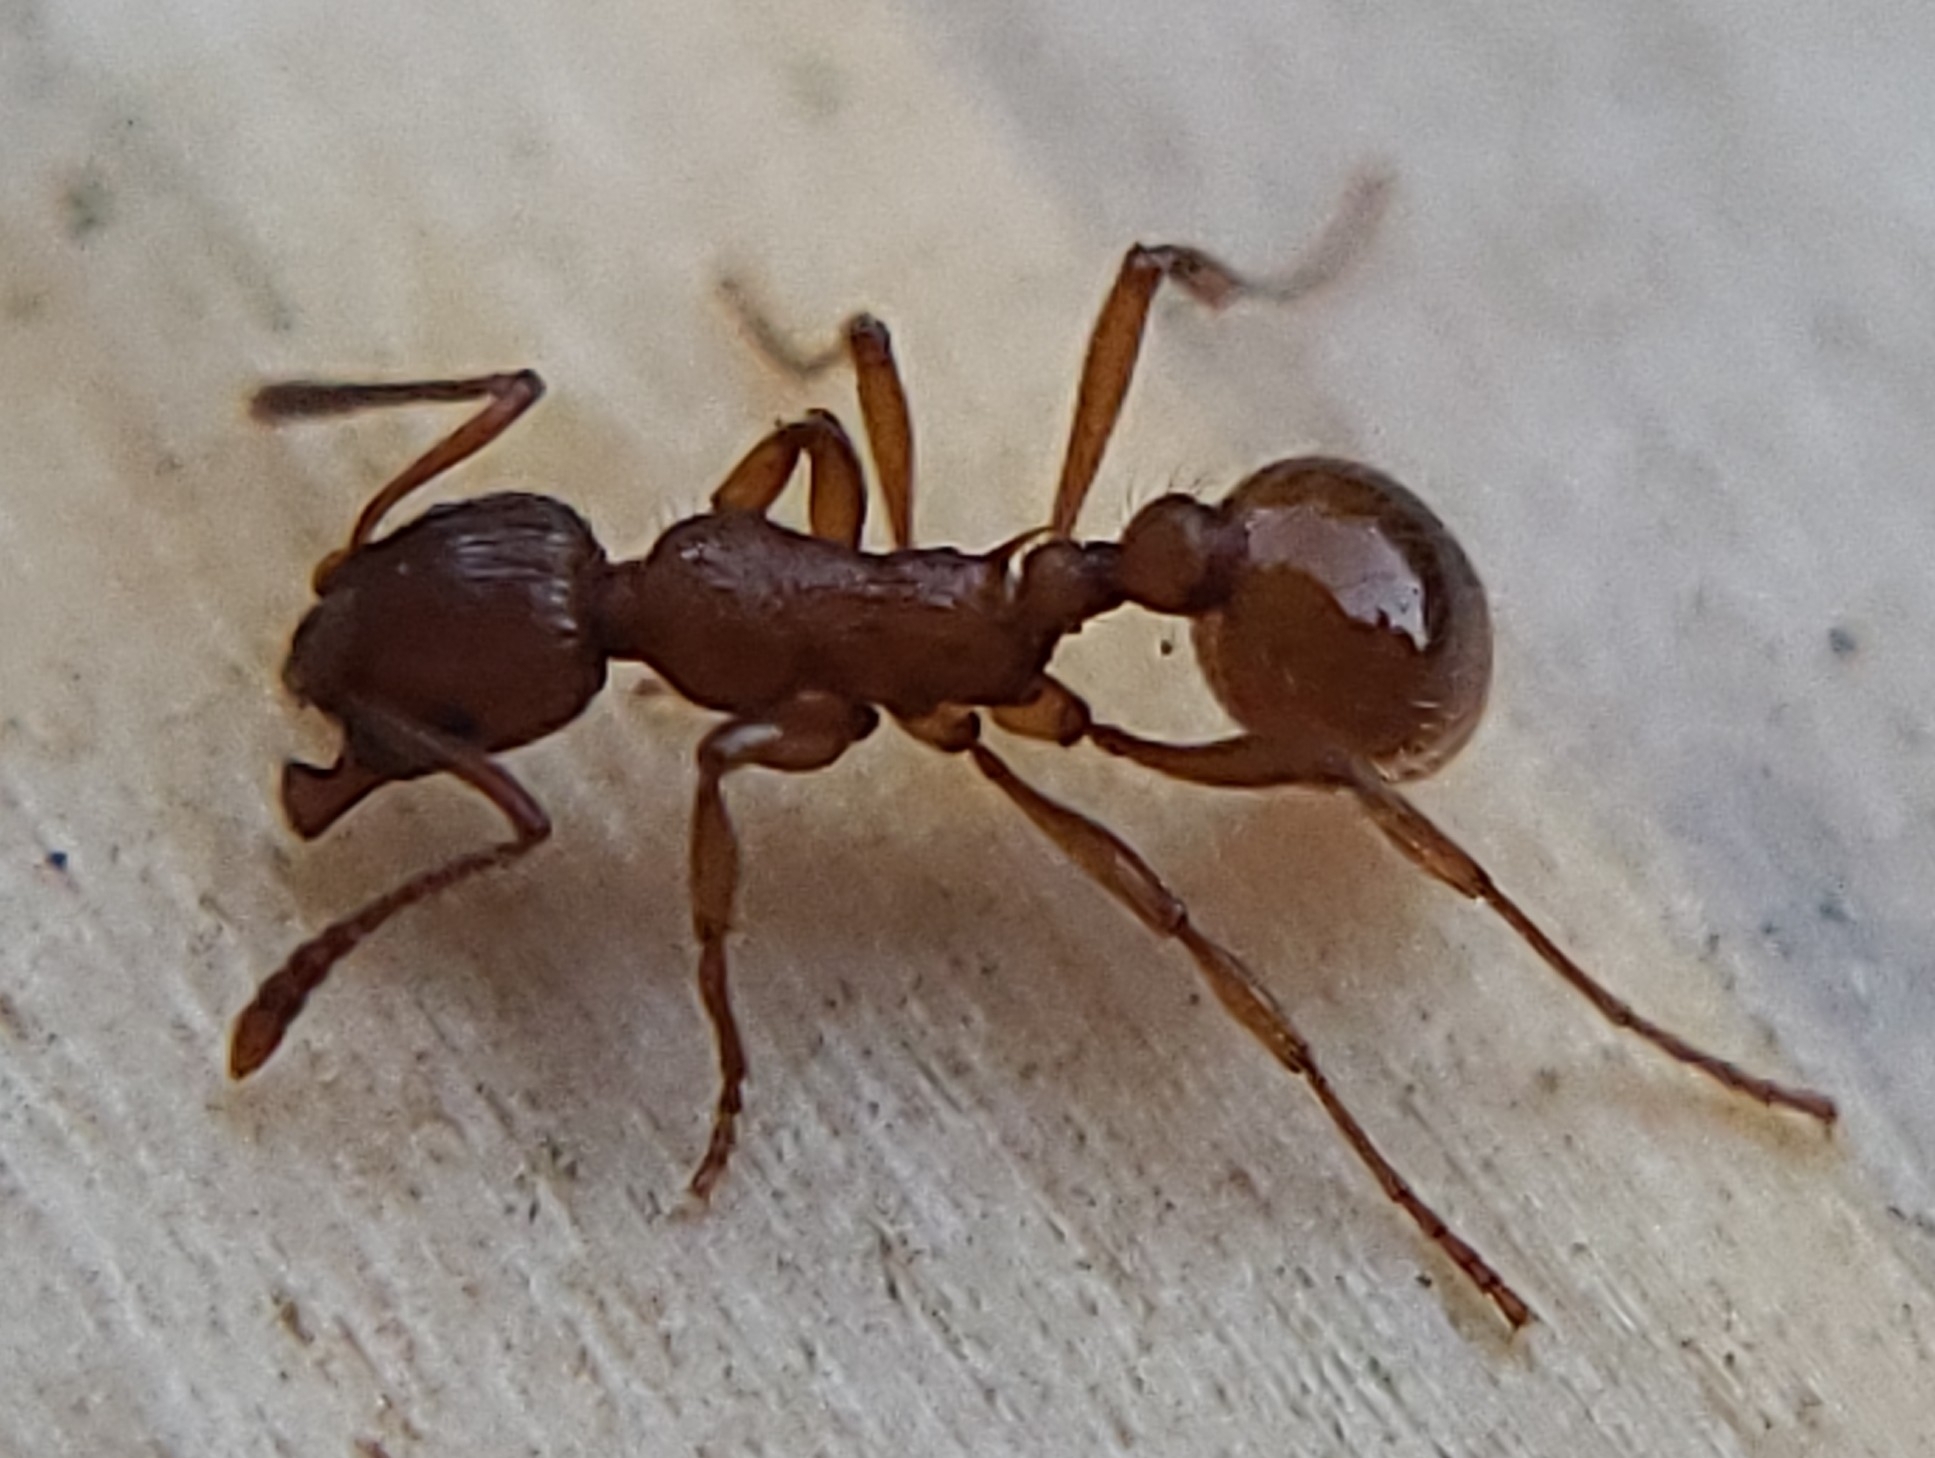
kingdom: Animalia
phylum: Arthropoda
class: Insecta
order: Hymenoptera
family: Formicidae
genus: Myrmica
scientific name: Myrmica rubra
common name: European fire ant
